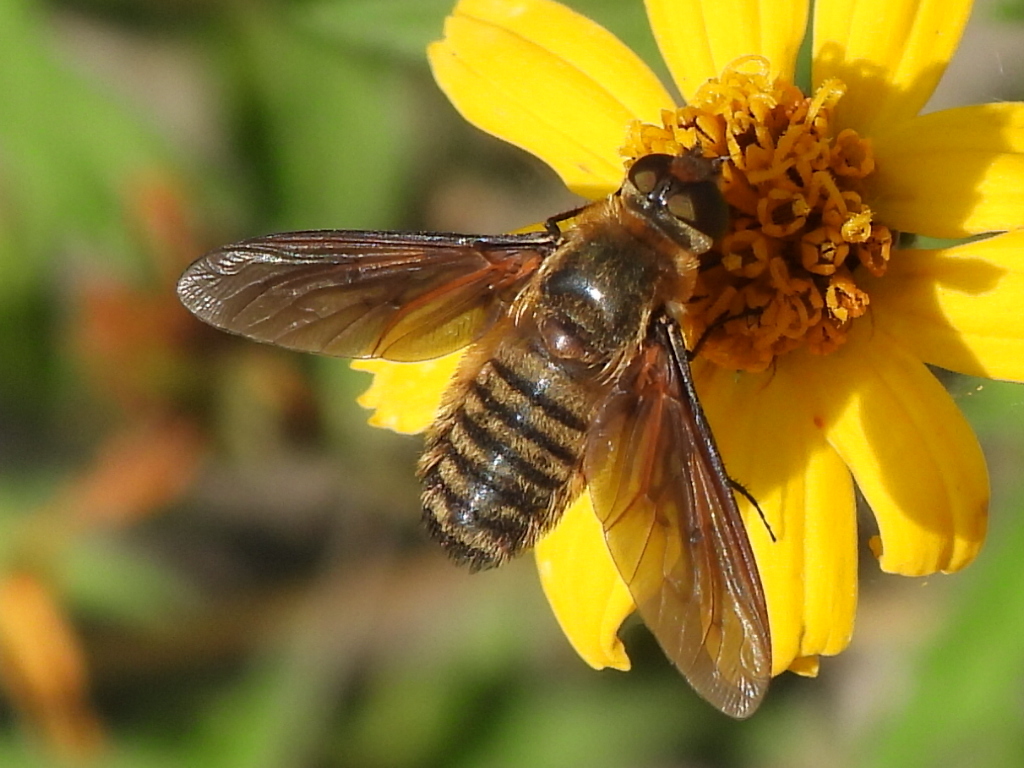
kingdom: Animalia
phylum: Arthropoda
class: Insecta
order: Diptera
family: Bombyliidae
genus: Poecilanthrax
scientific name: Poecilanthrax lucifer
